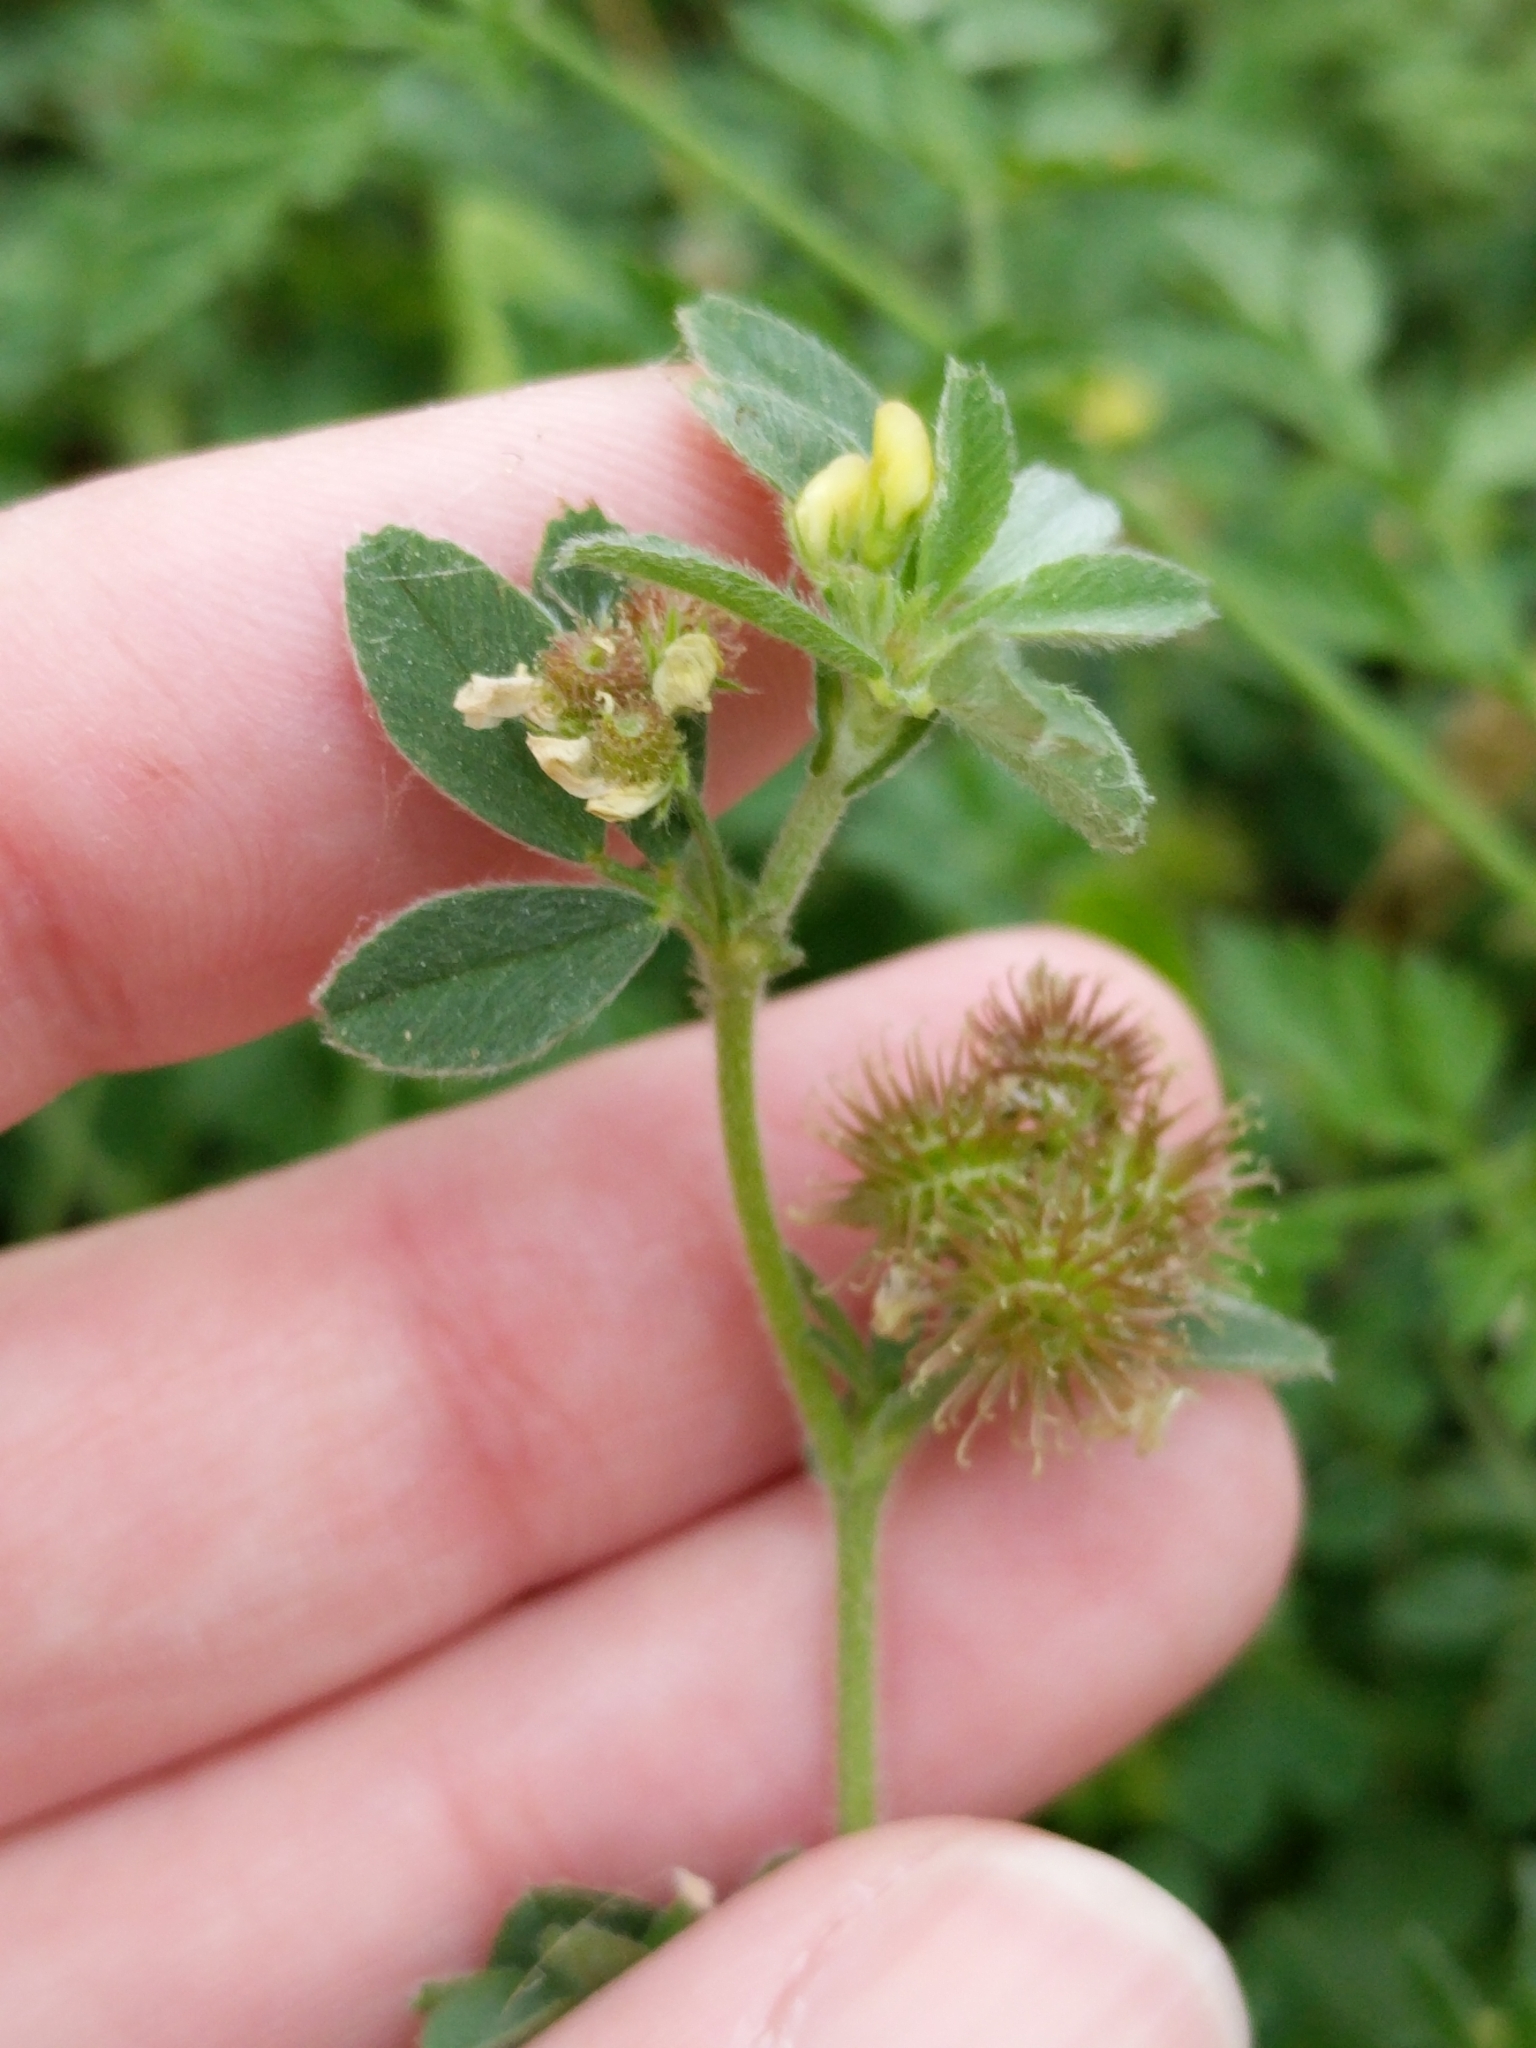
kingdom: Plantae
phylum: Tracheophyta
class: Magnoliopsida
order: Fabales
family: Fabaceae
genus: Medicago
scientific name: Medicago minima
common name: Little bur-clover
